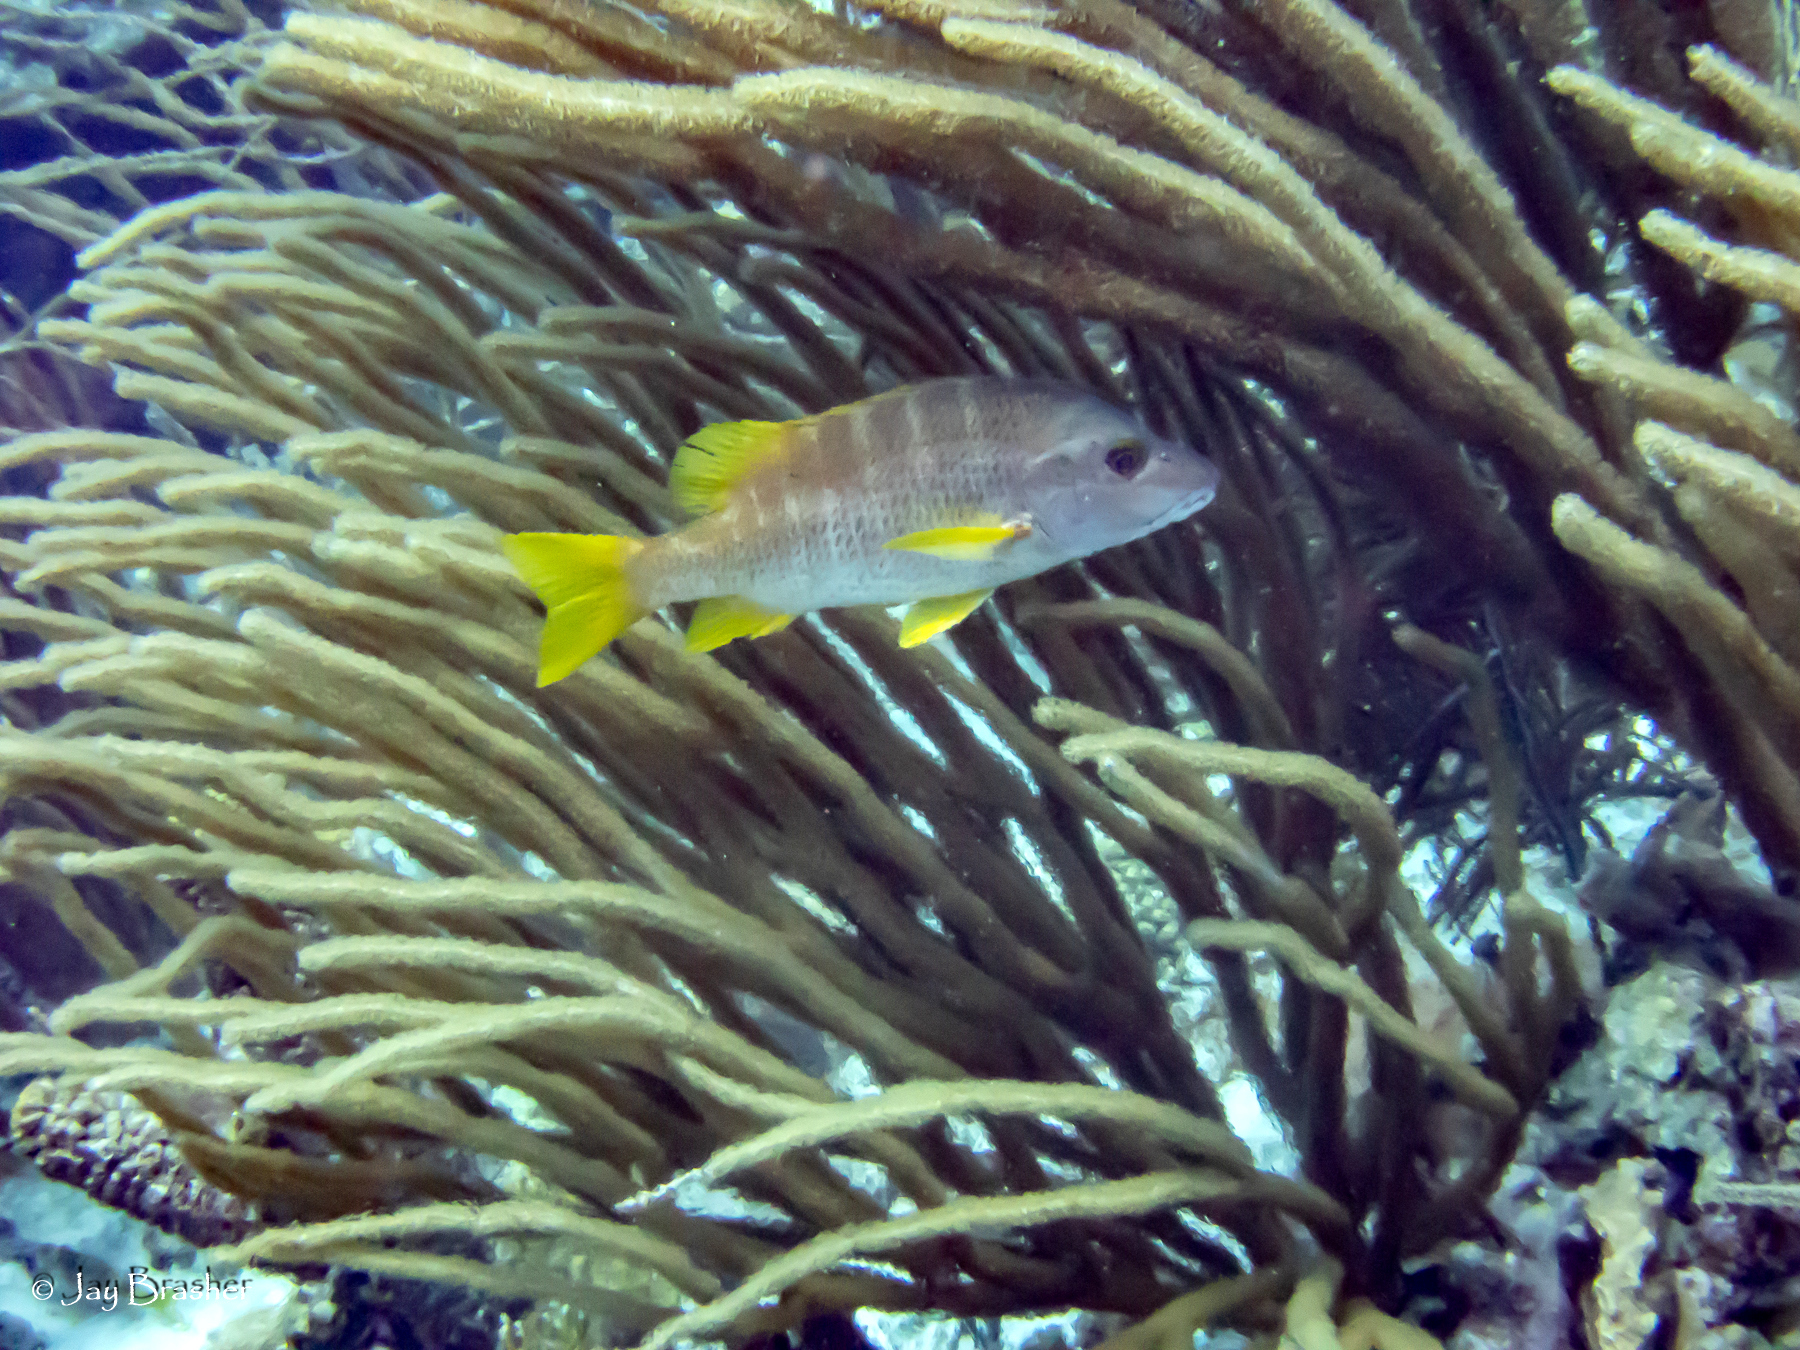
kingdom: Animalia
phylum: Chordata
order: Perciformes
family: Lutjanidae
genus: Lutjanus
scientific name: Lutjanus apodus
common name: Schoolmaster
